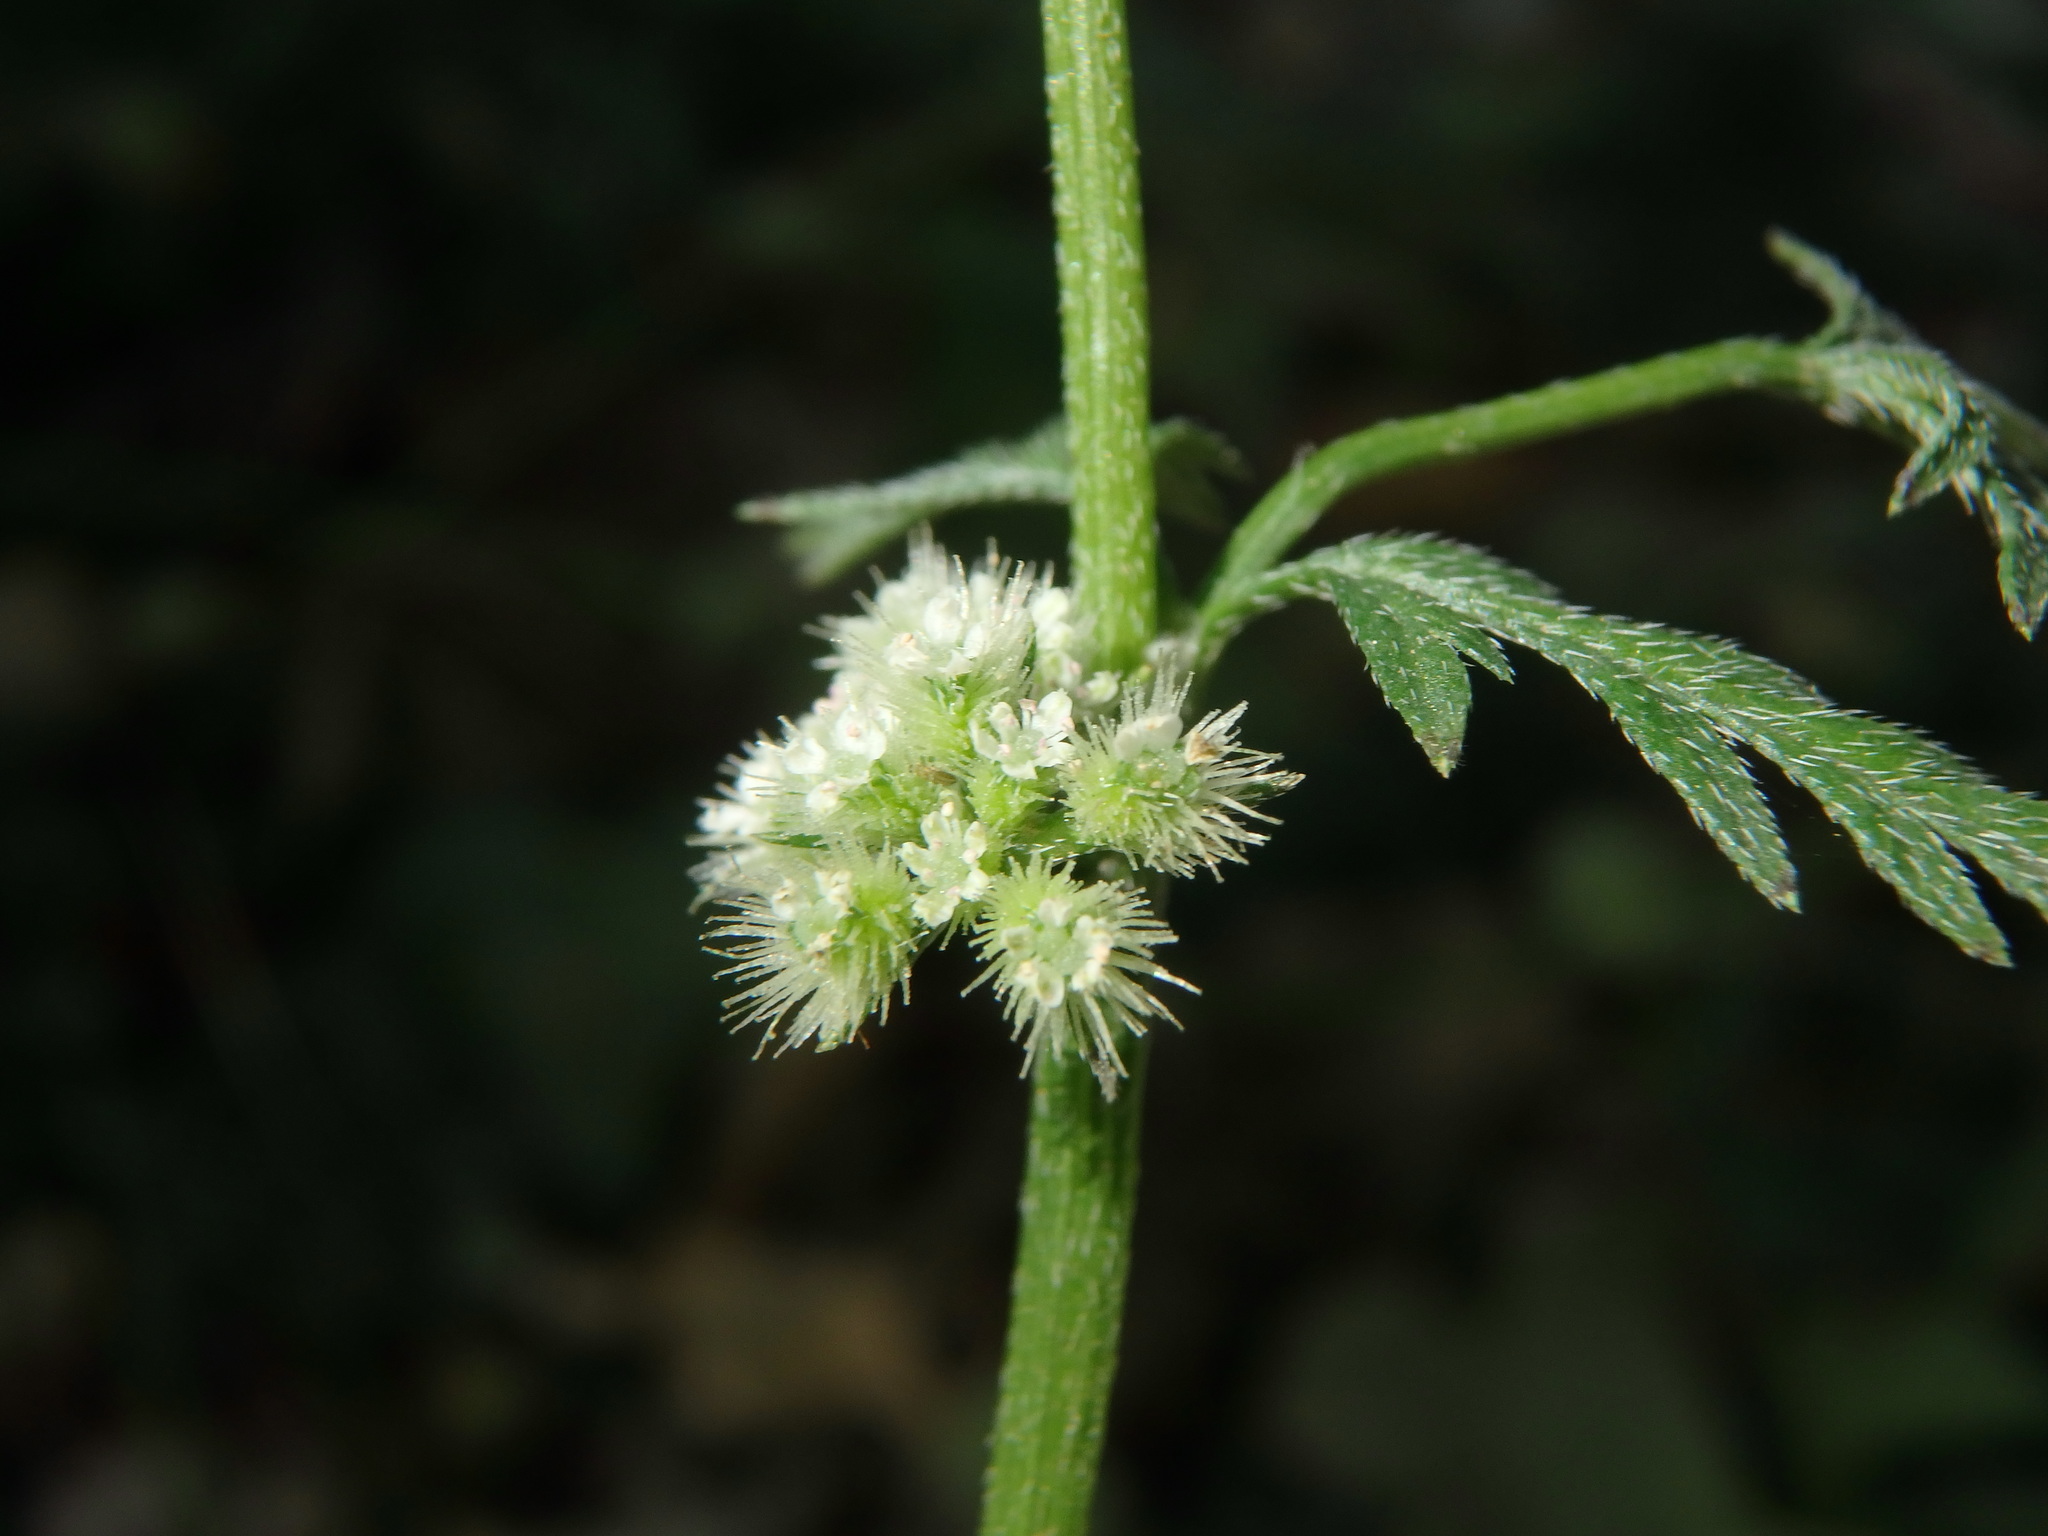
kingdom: Plantae
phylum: Tracheophyta
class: Magnoliopsida
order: Apiales
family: Apiaceae
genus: Torilis
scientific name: Torilis nodosa
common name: Knotted hedge-parsley
